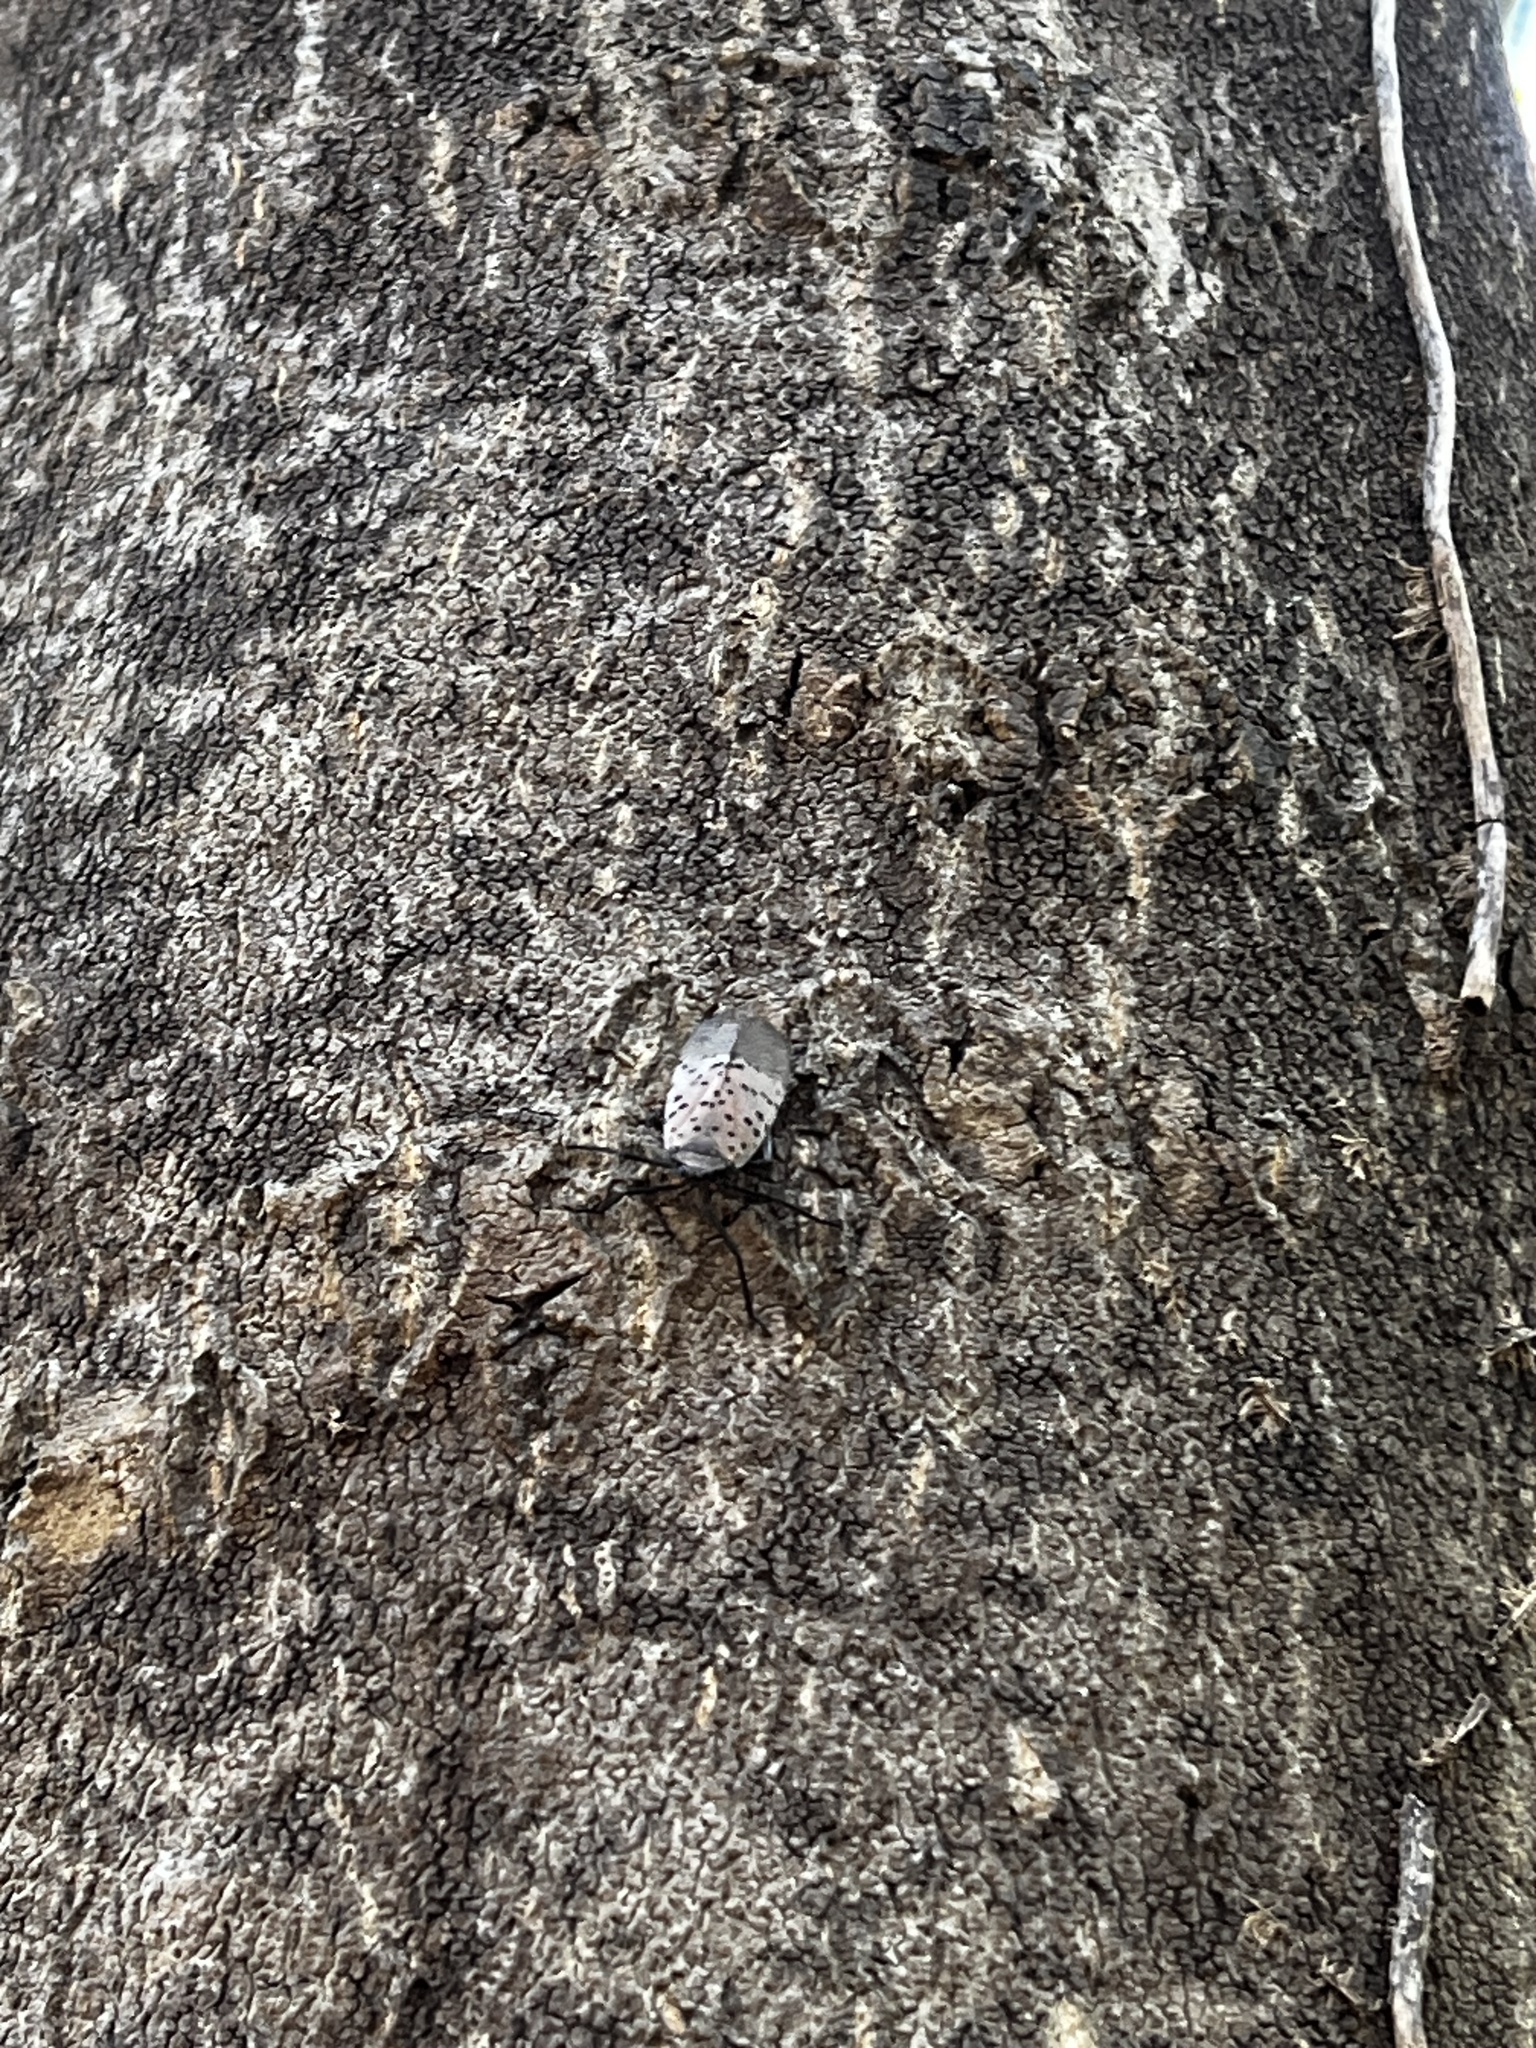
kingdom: Animalia
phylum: Arthropoda
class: Insecta
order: Hemiptera
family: Fulgoridae
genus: Lycorma
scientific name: Lycorma delicatula
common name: Spotted lanternfly
